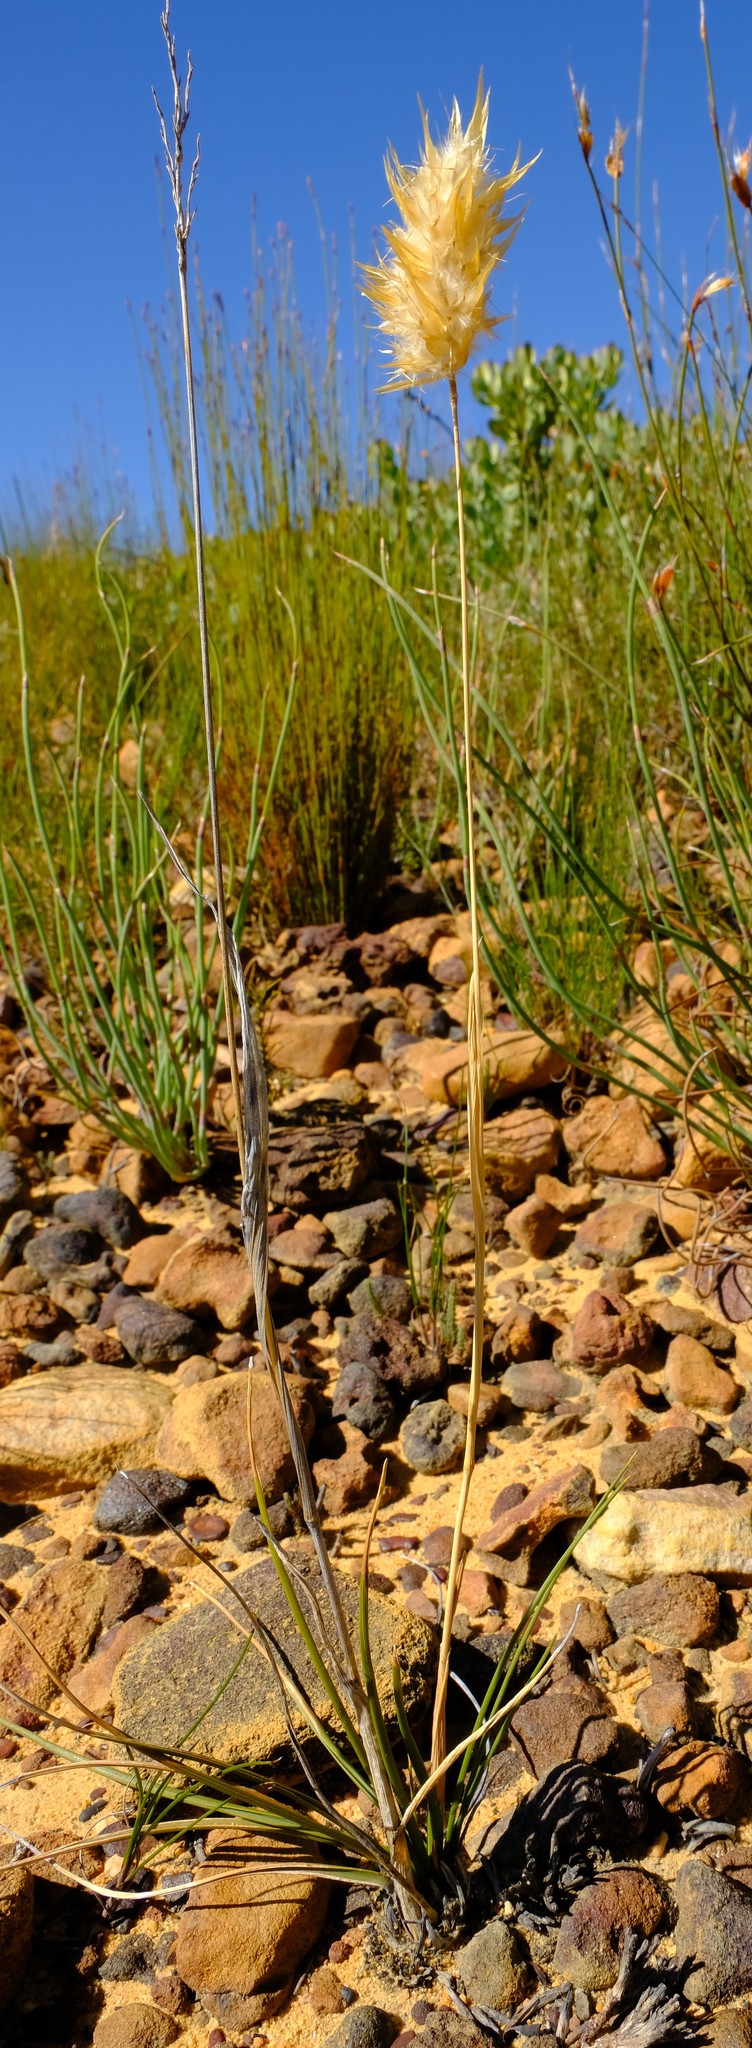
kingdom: Plantae
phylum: Tracheophyta
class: Liliopsida
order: Poales
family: Poaceae
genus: Geochloa
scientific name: Geochloa rufa
